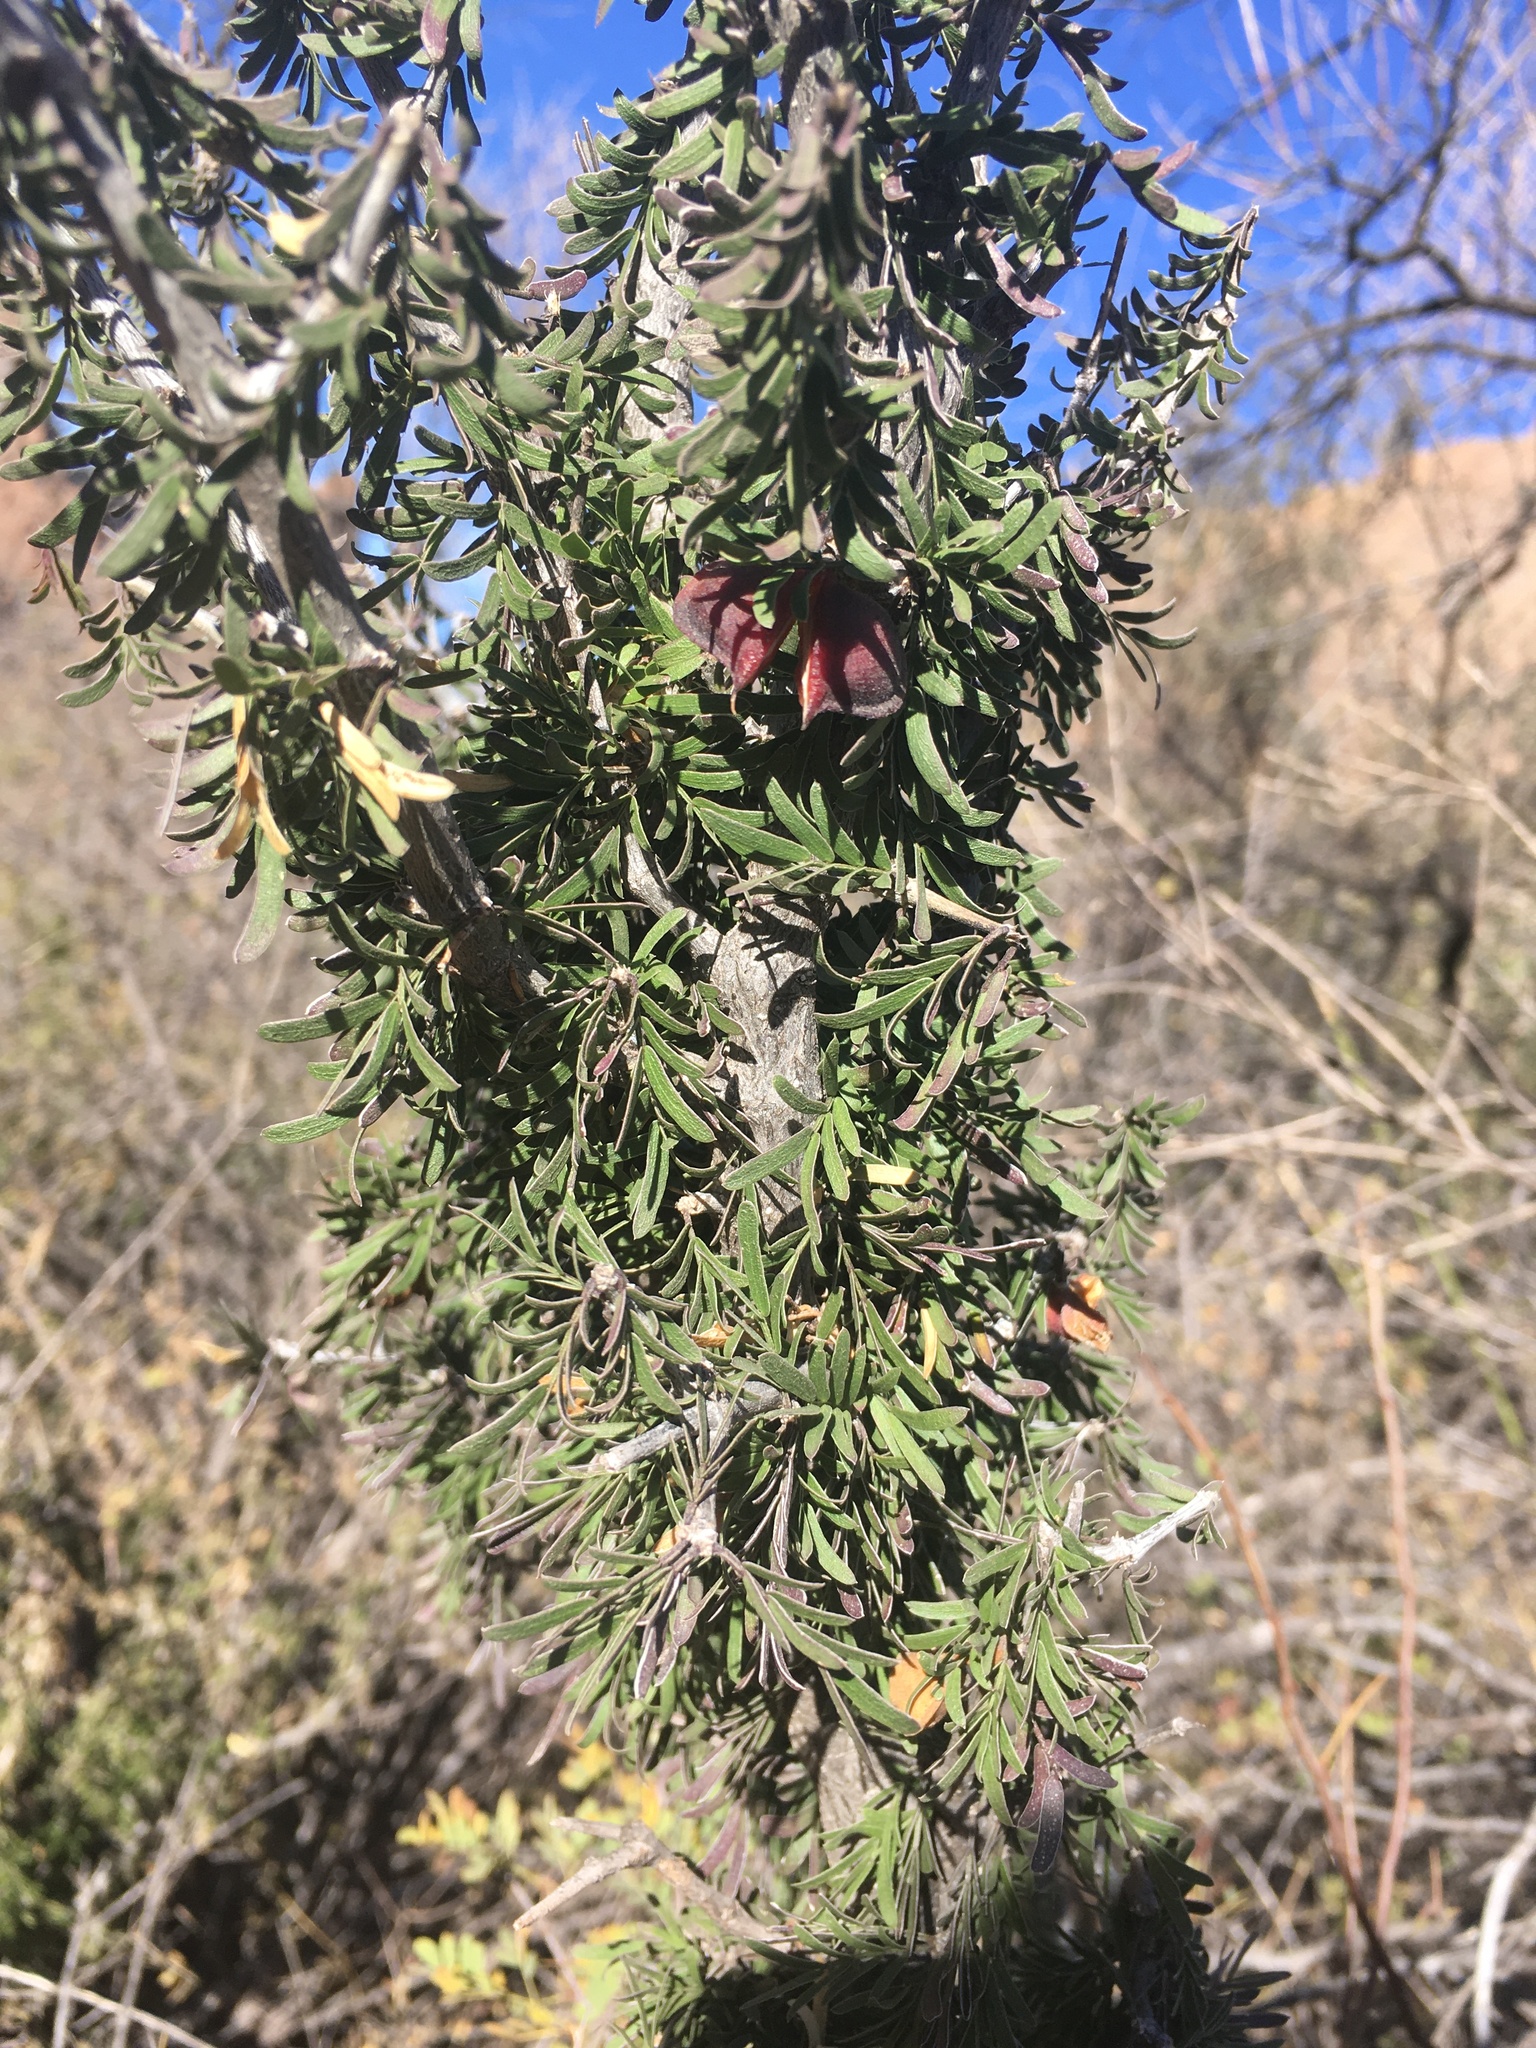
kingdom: Plantae
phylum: Tracheophyta
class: Magnoliopsida
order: Zygophyllales
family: Zygophyllaceae
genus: Porlieria
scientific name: Porlieria angustifolia
